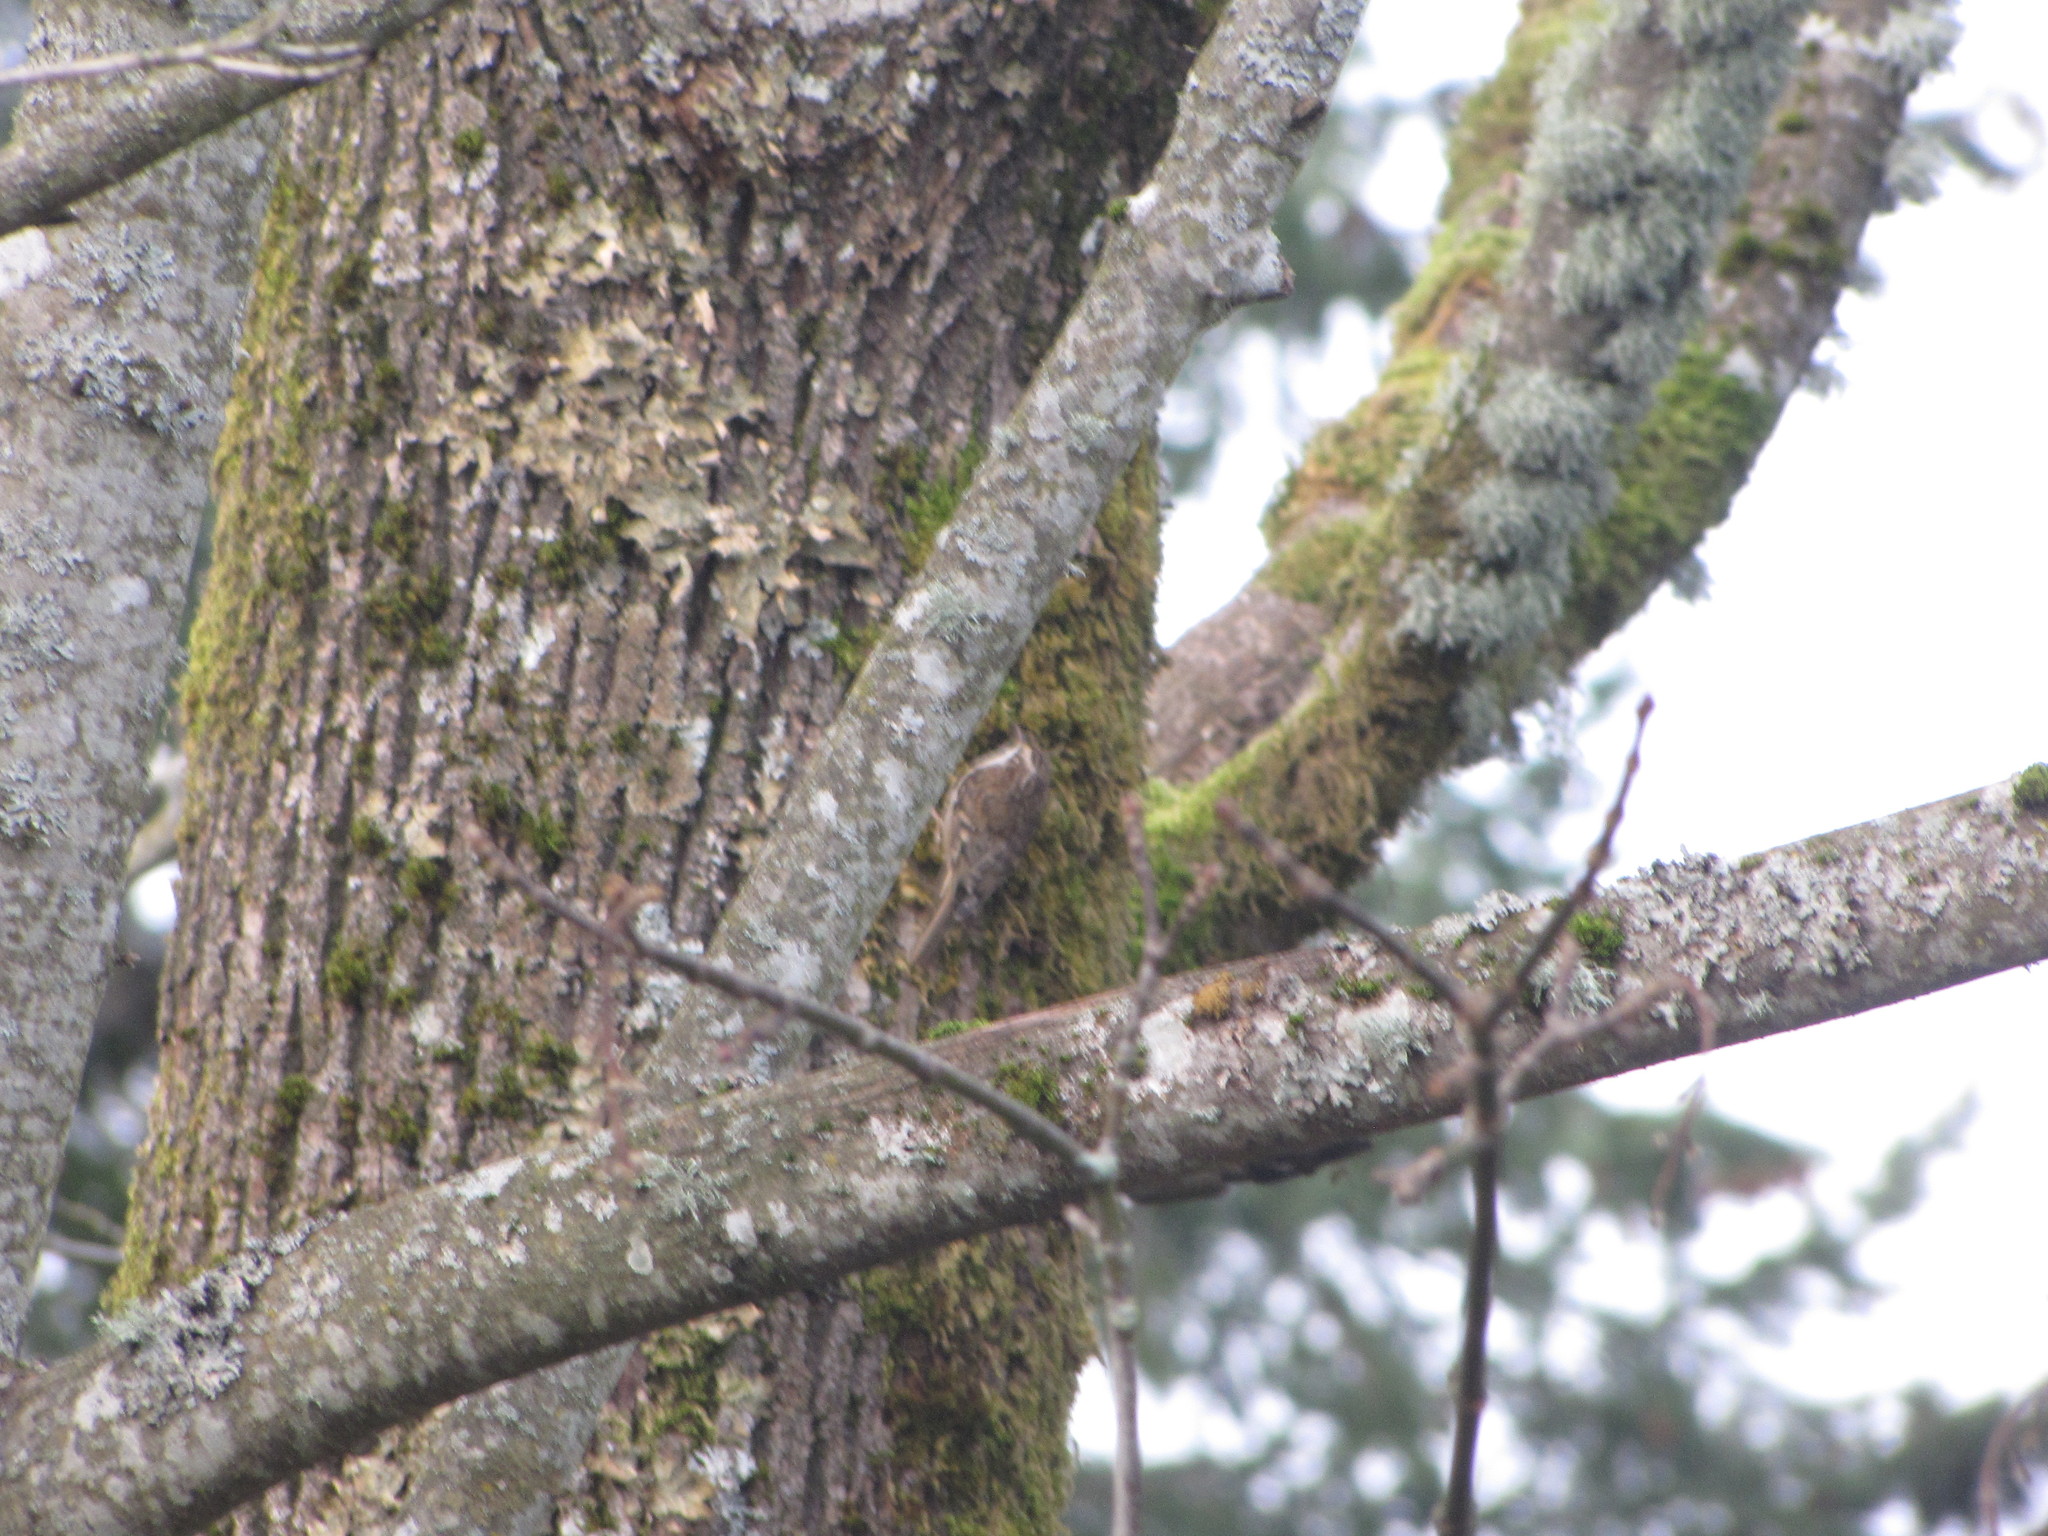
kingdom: Animalia
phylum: Chordata
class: Aves
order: Passeriformes
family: Certhiidae
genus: Certhia
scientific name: Certhia americana
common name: Brown creeper
